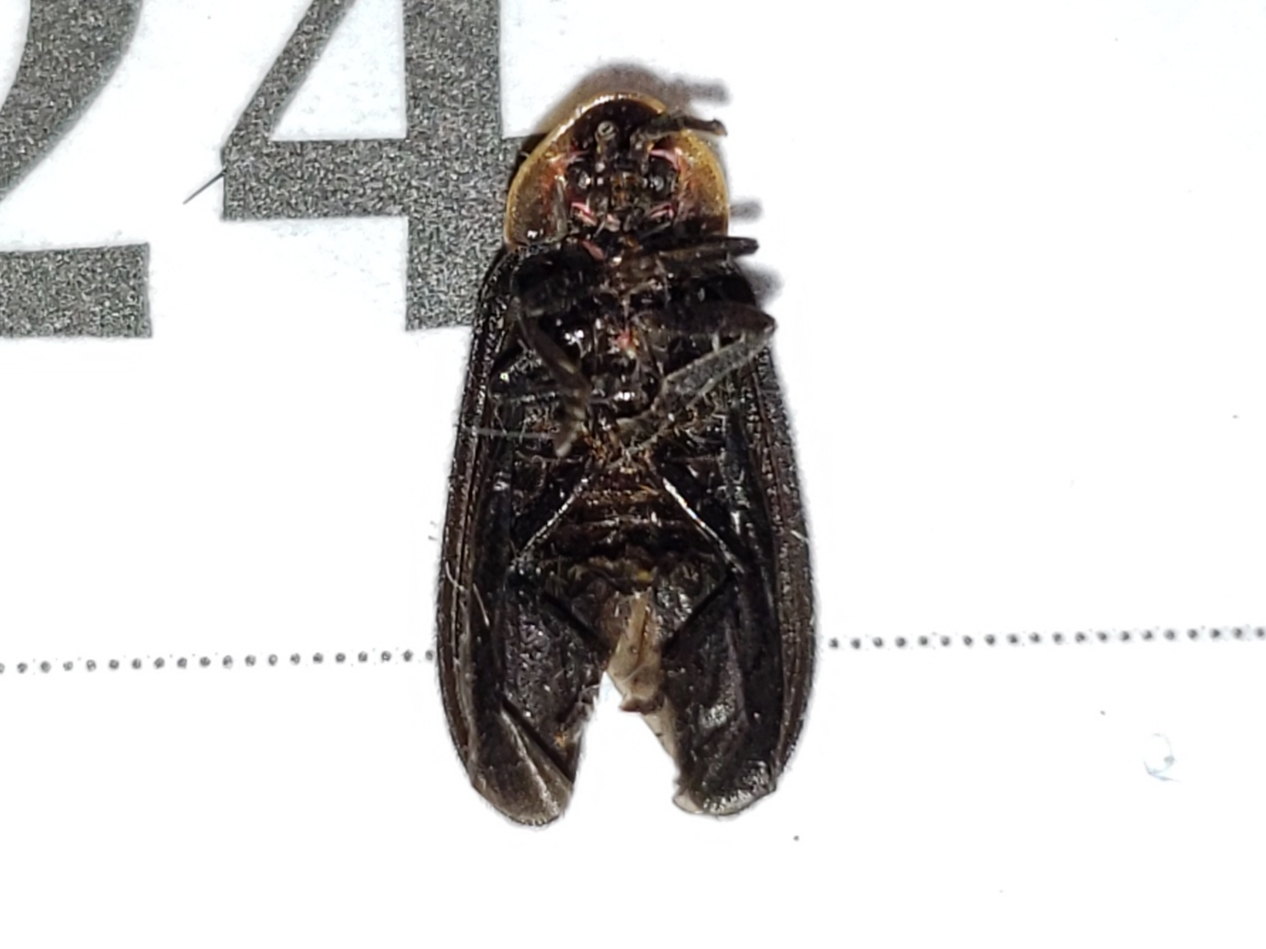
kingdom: Animalia
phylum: Arthropoda
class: Insecta
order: Coleoptera
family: Lampyridae
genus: Lucidota
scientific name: Lucidota atra
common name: Black firefly
